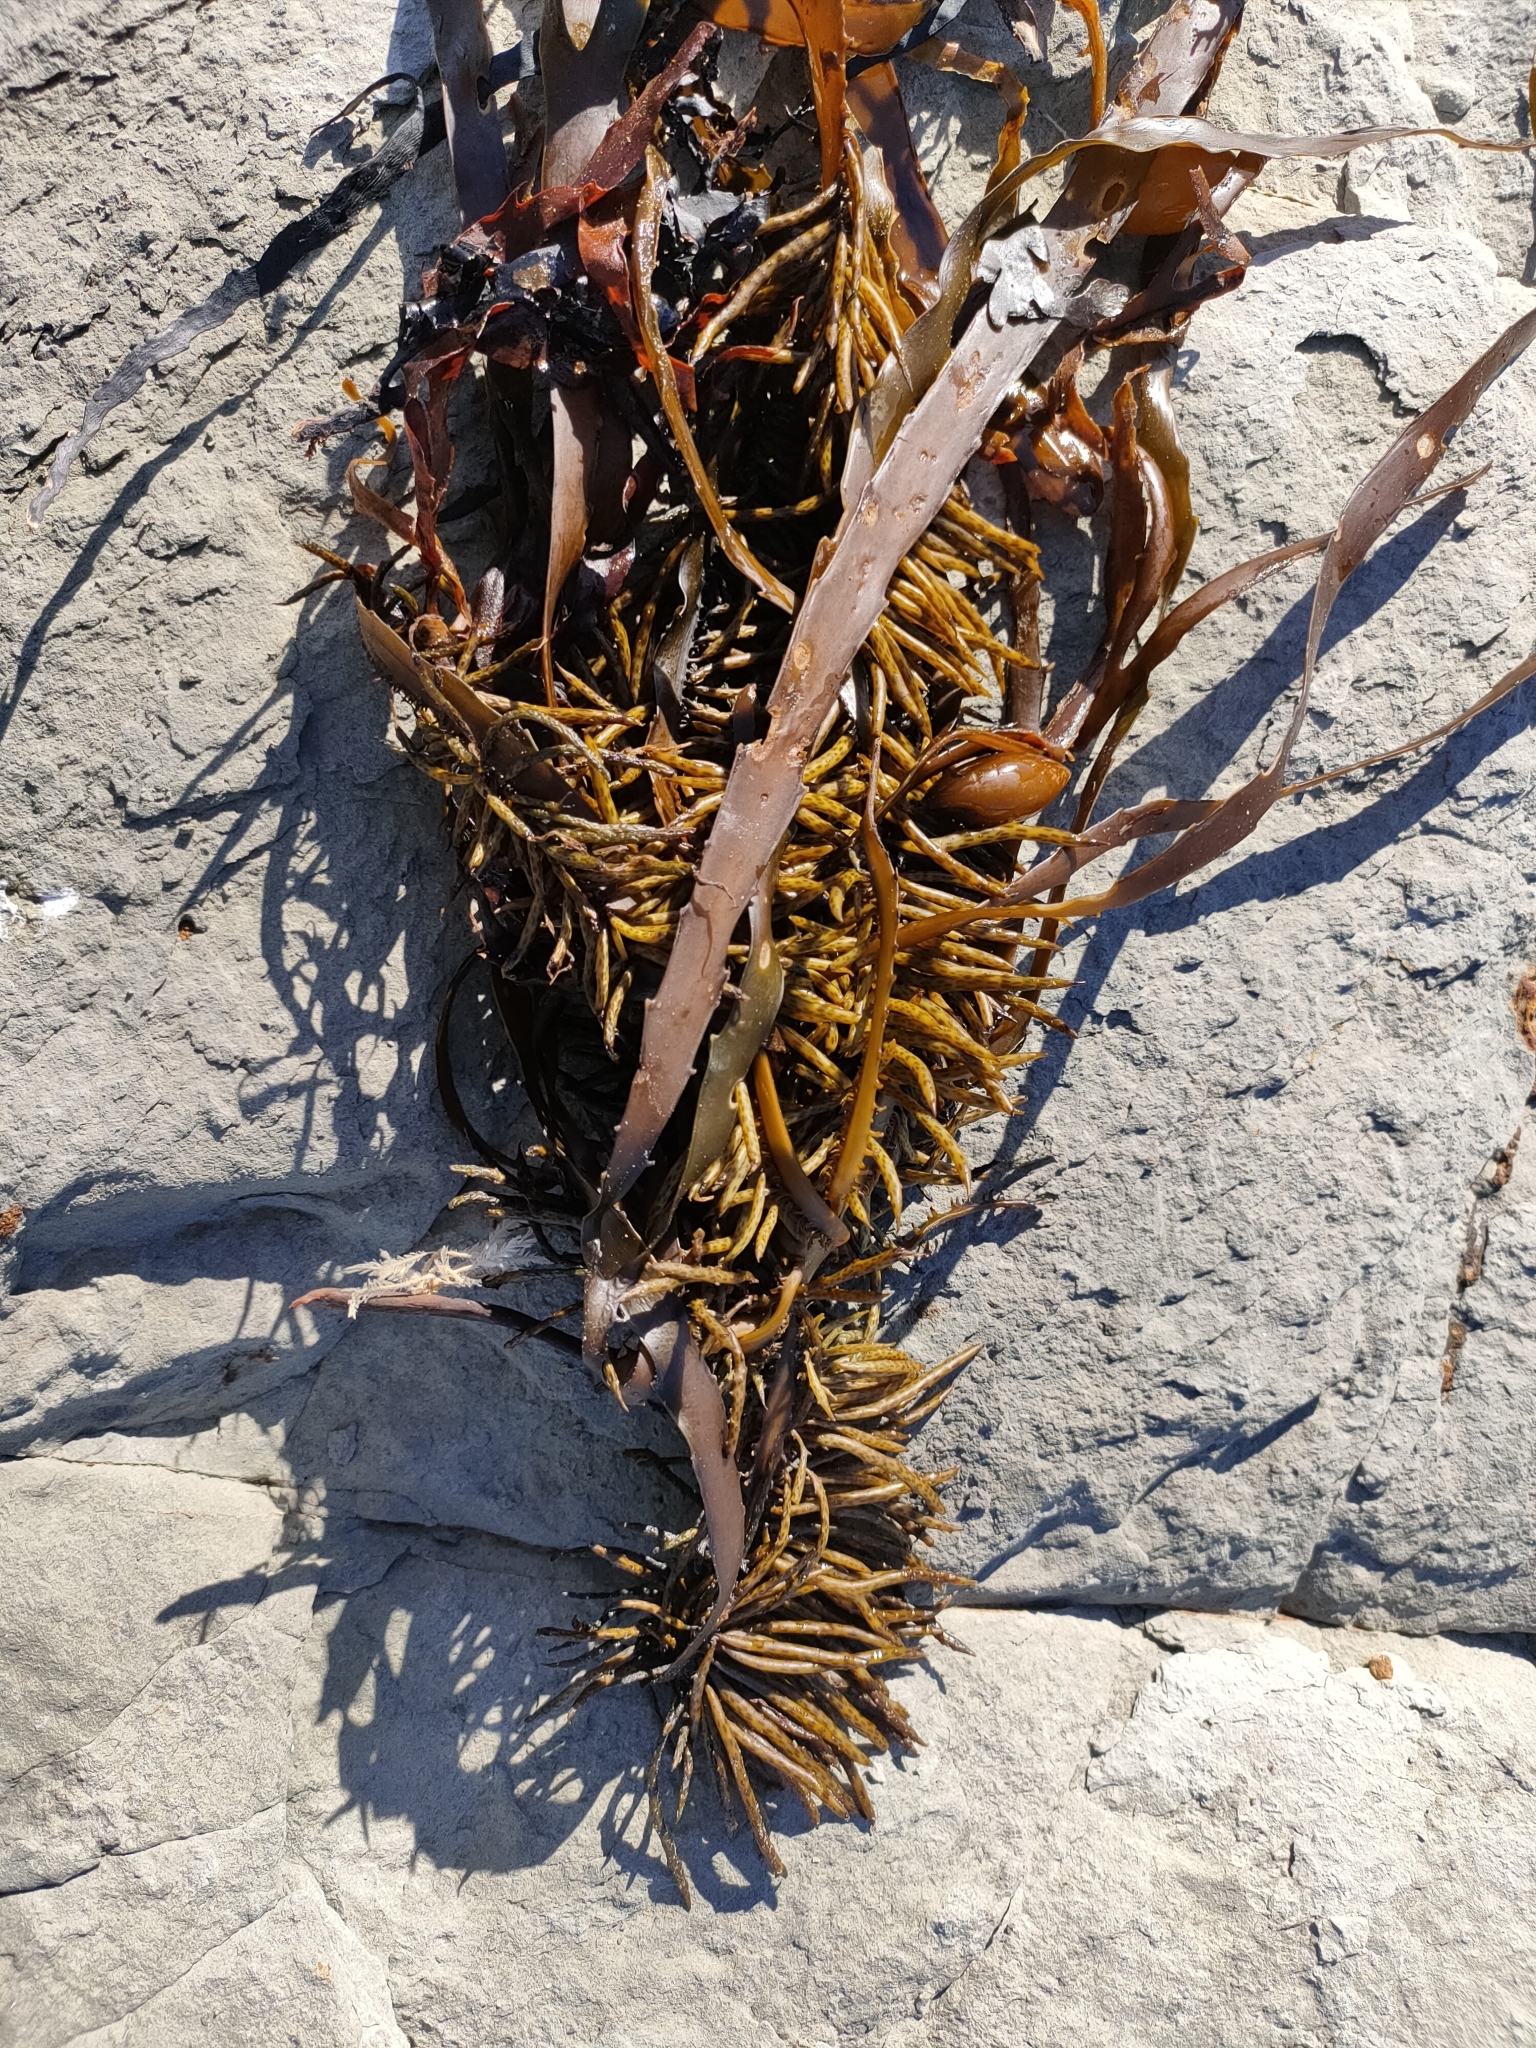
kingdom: Chromista
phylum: Ochrophyta
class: Phaeophyceae
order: Fucales
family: Seirococcaceae
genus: Marginariella
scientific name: Marginariella boryana
